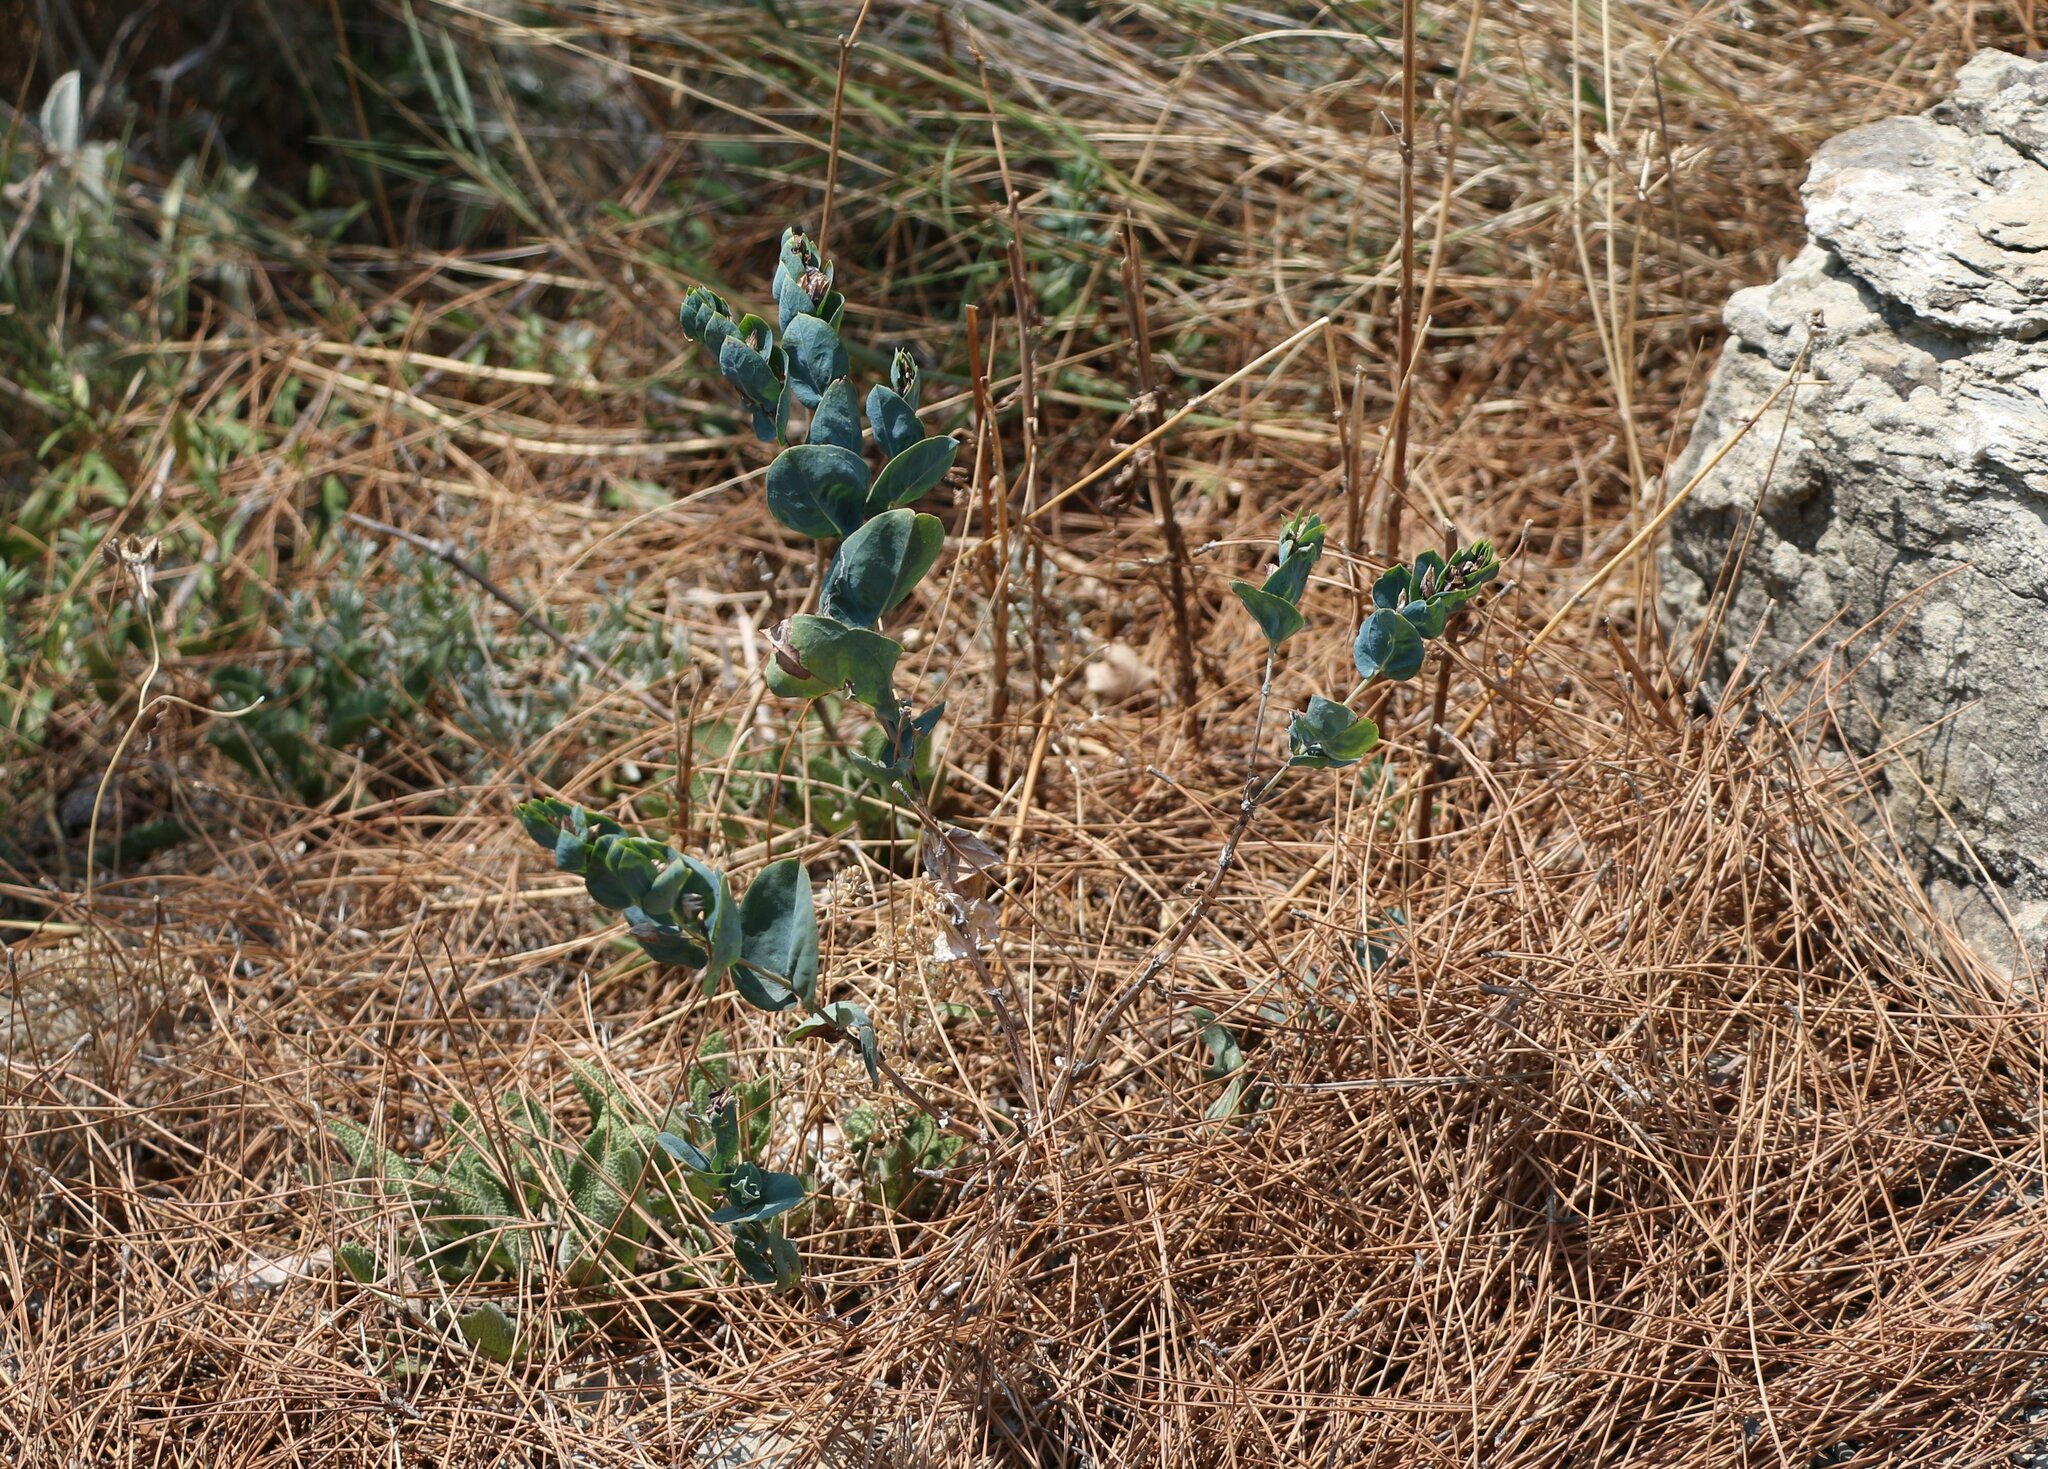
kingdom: Plantae
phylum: Tracheophyta
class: Magnoliopsida
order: Boraginales
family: Boraginaceae
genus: Cerinthe
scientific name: Cerinthe minor
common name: Lesser honeywort
